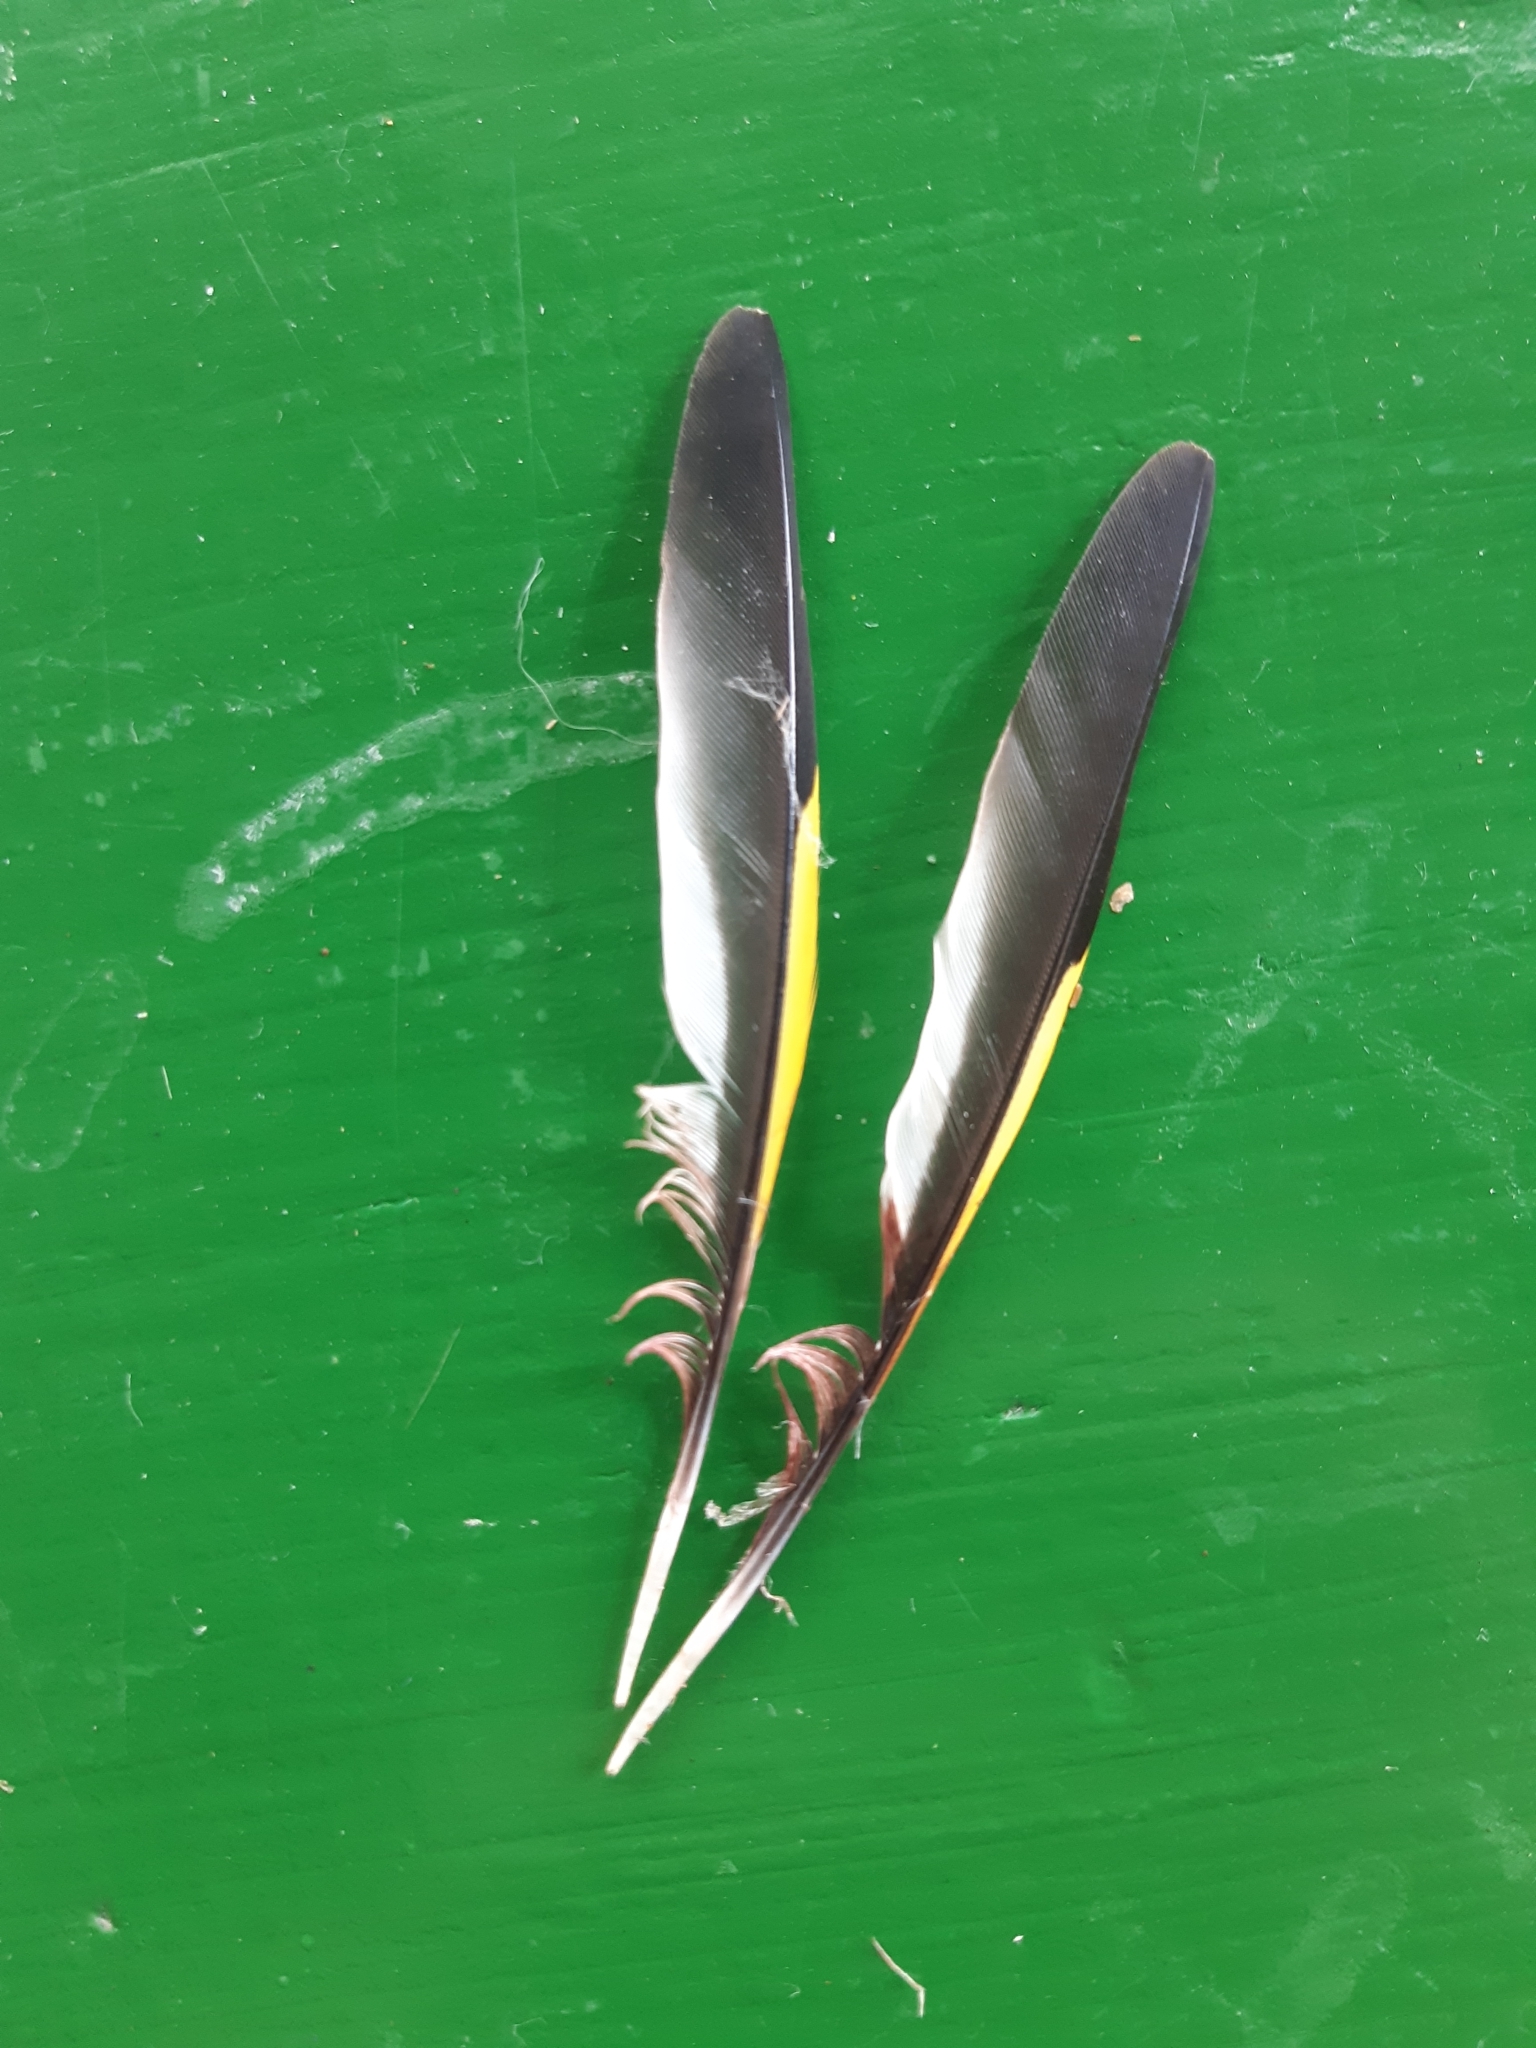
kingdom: Animalia
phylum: Chordata
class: Aves
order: Passeriformes
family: Fringillidae
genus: Carduelis
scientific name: Carduelis carduelis
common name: European goldfinch
